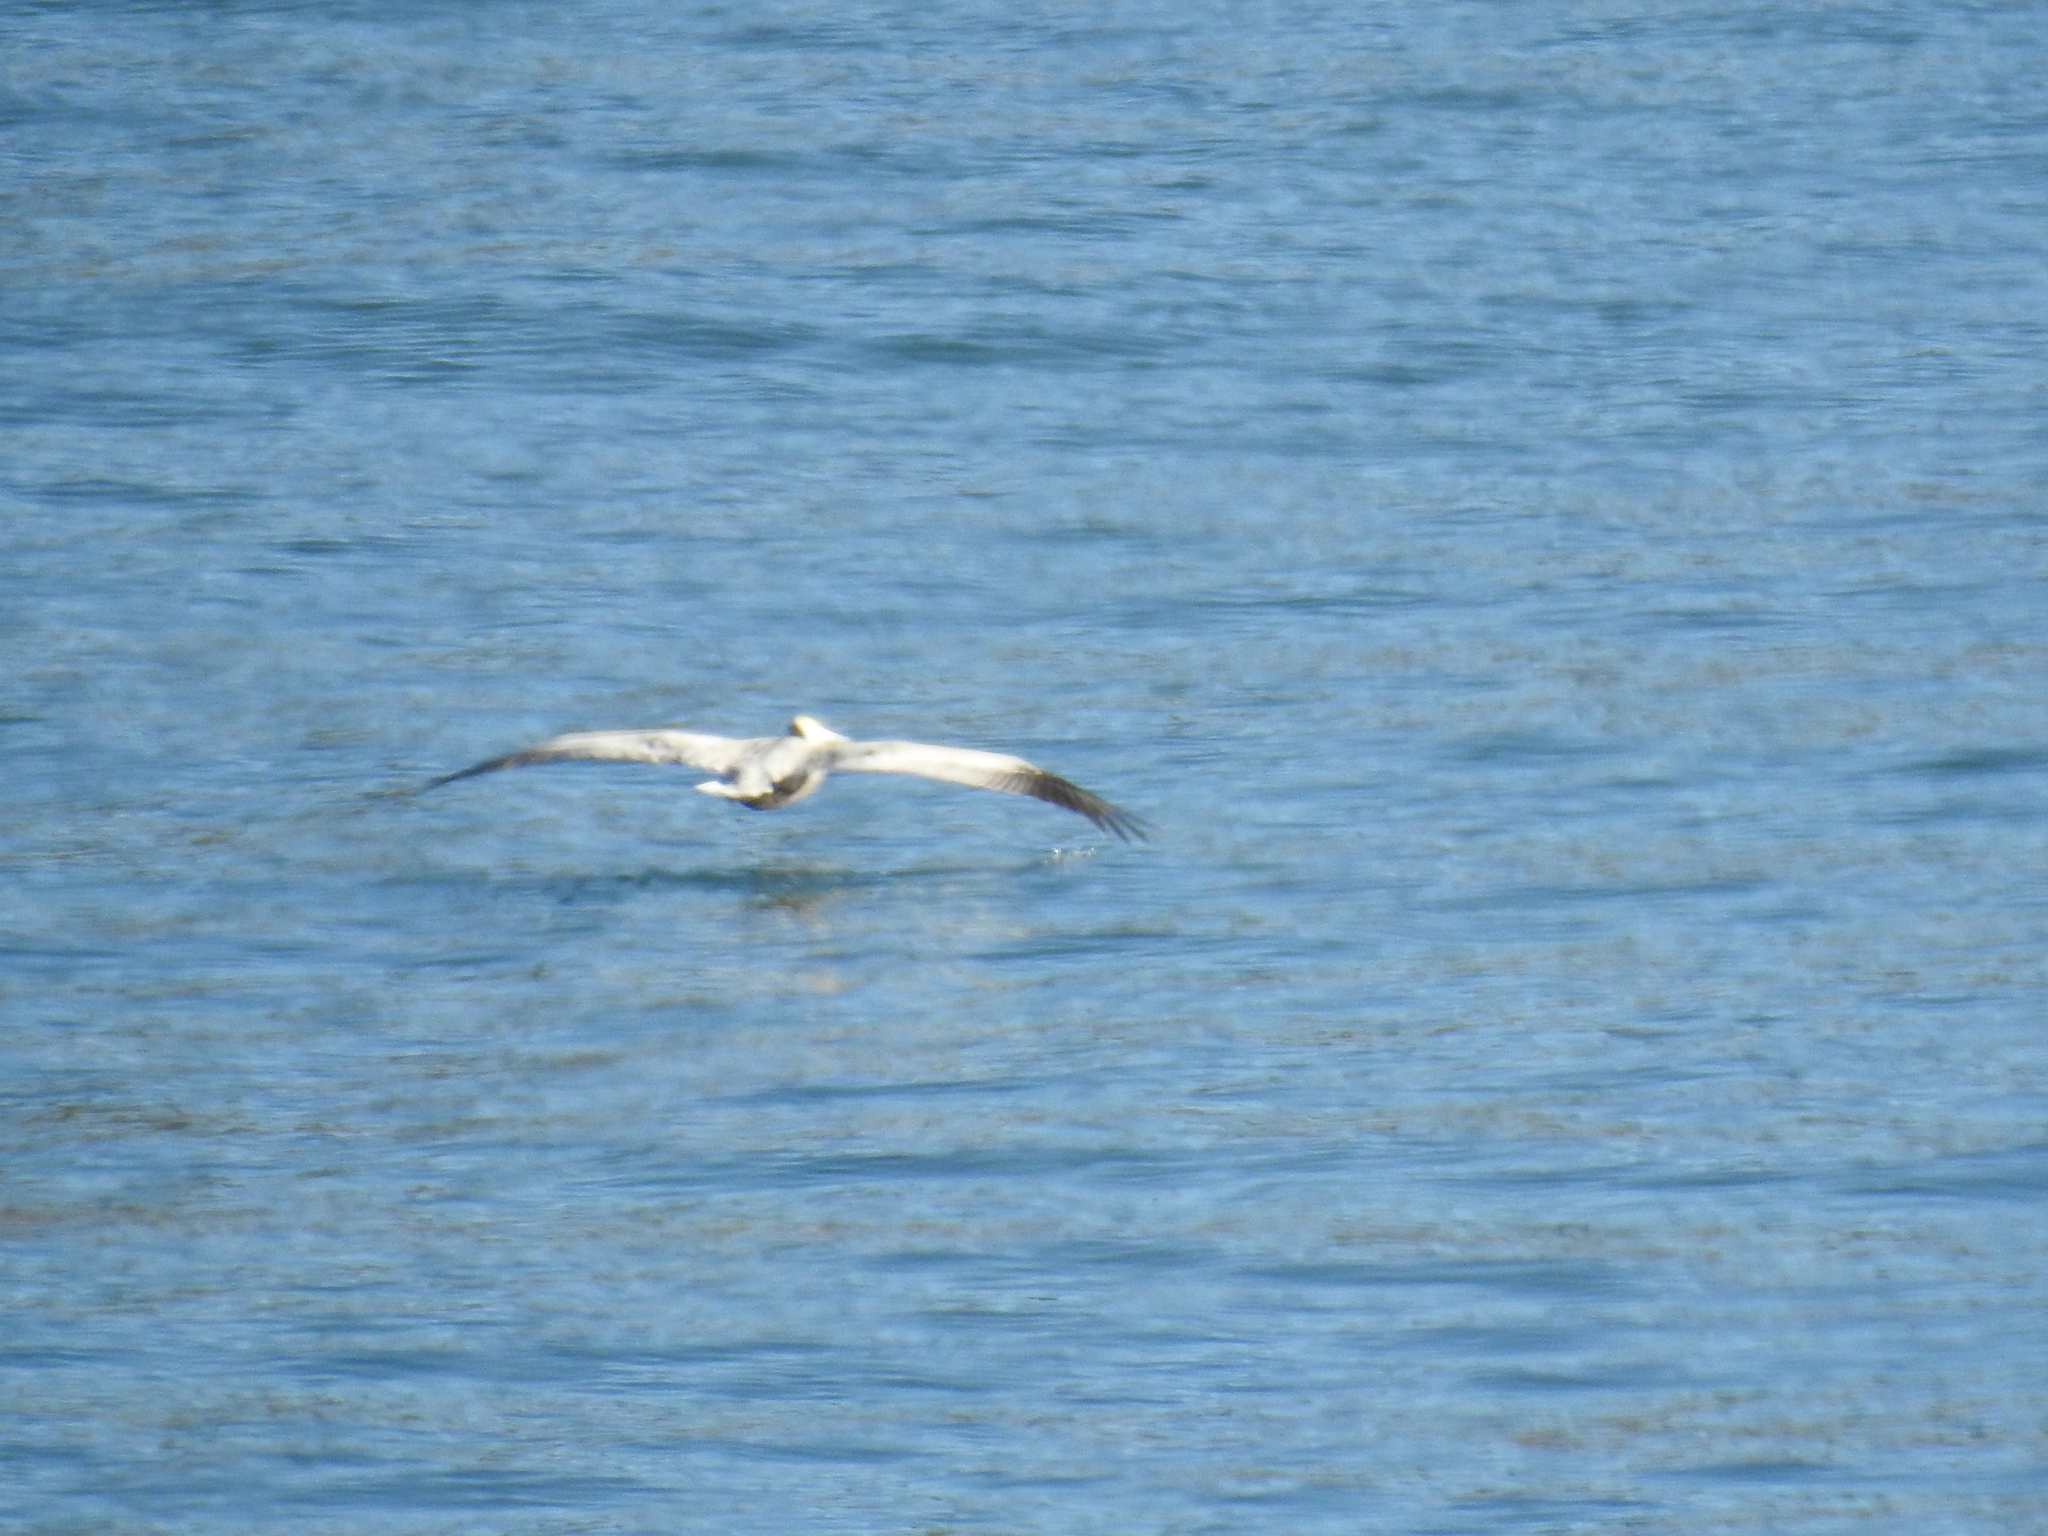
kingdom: Animalia
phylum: Chordata
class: Aves
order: Pelecaniformes
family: Pelecanidae
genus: Pelecanus
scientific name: Pelecanus occidentalis
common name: Brown pelican
